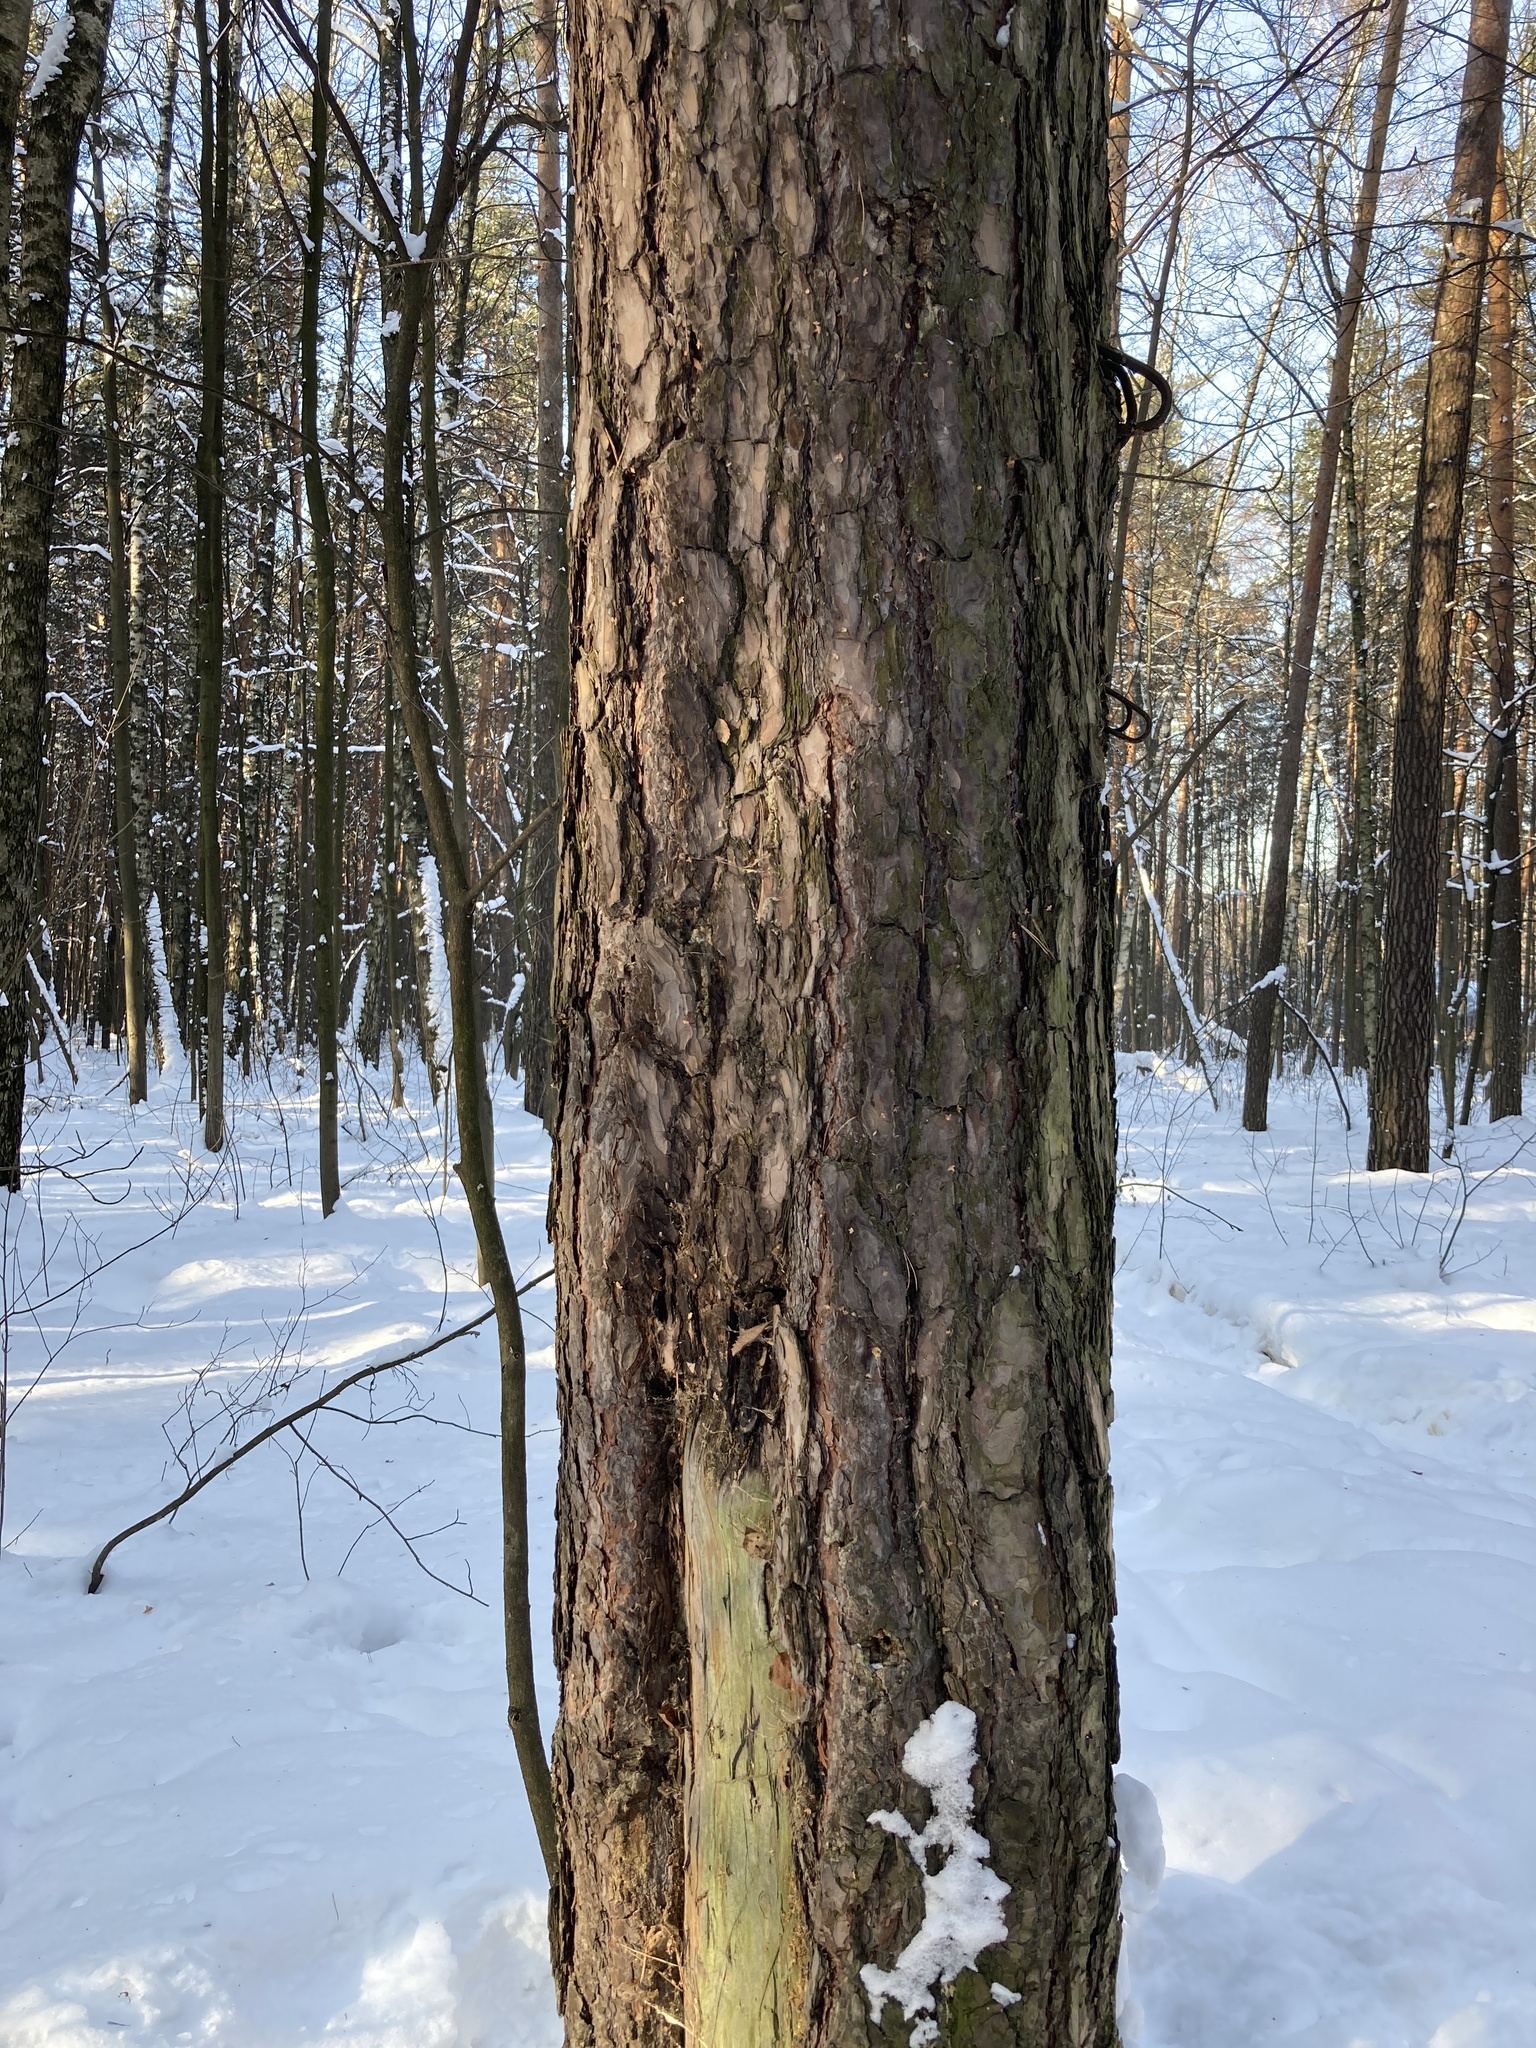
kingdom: Plantae
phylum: Tracheophyta
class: Pinopsida
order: Pinales
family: Pinaceae
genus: Pinus
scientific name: Pinus sylvestris
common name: Scots pine
